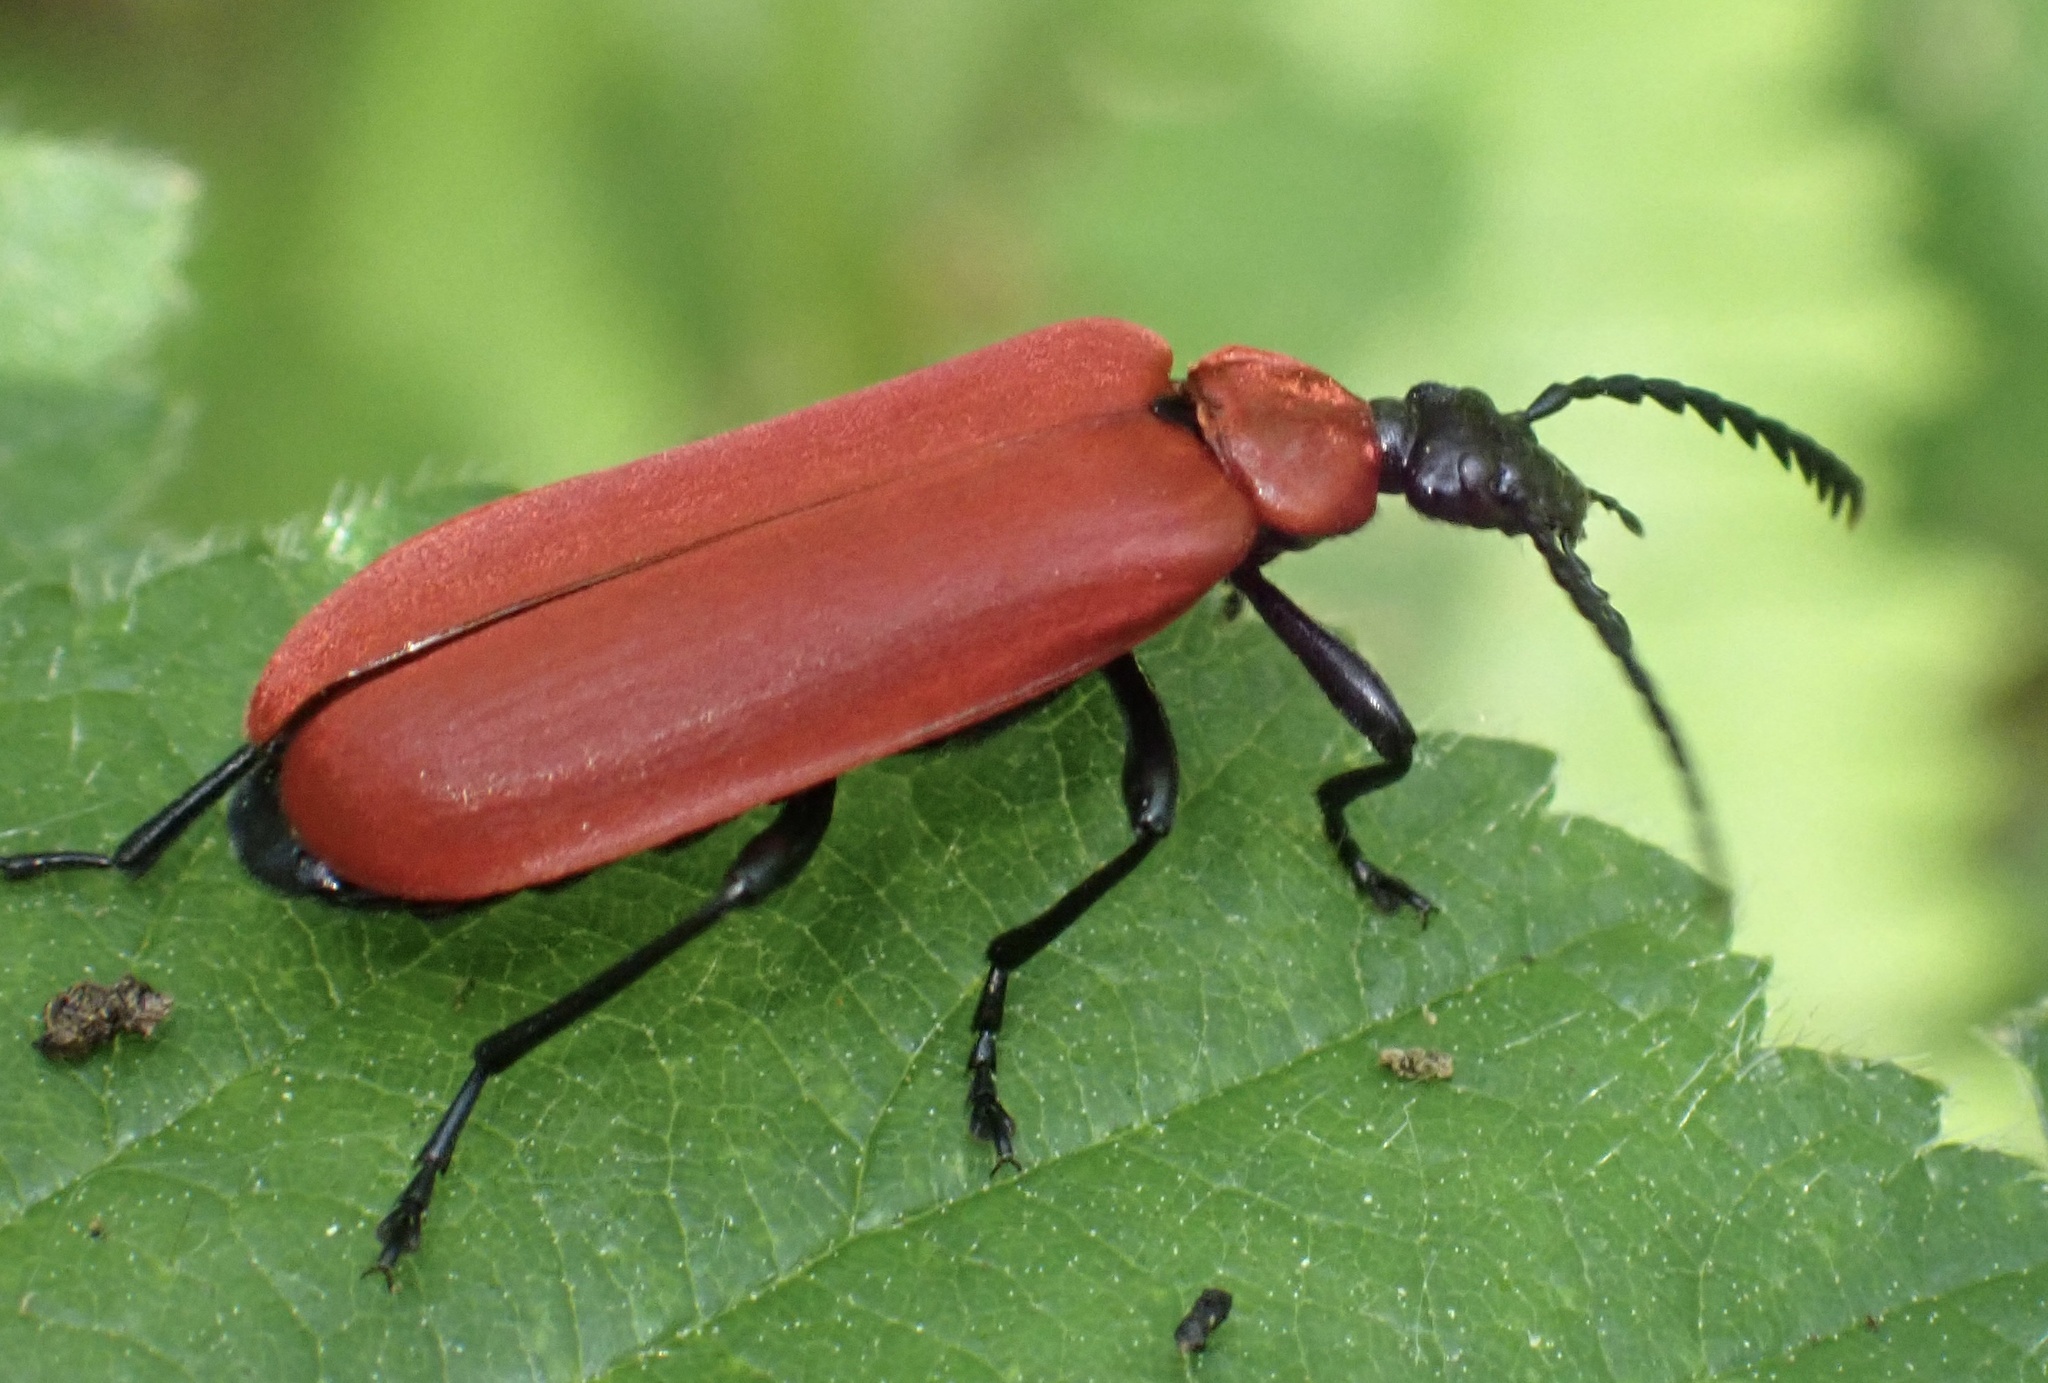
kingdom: Animalia
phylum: Arthropoda
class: Insecta
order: Coleoptera
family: Pyrochroidae
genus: Pyrochroa
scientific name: Pyrochroa coccinea
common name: Black-headed cardinal beetle
